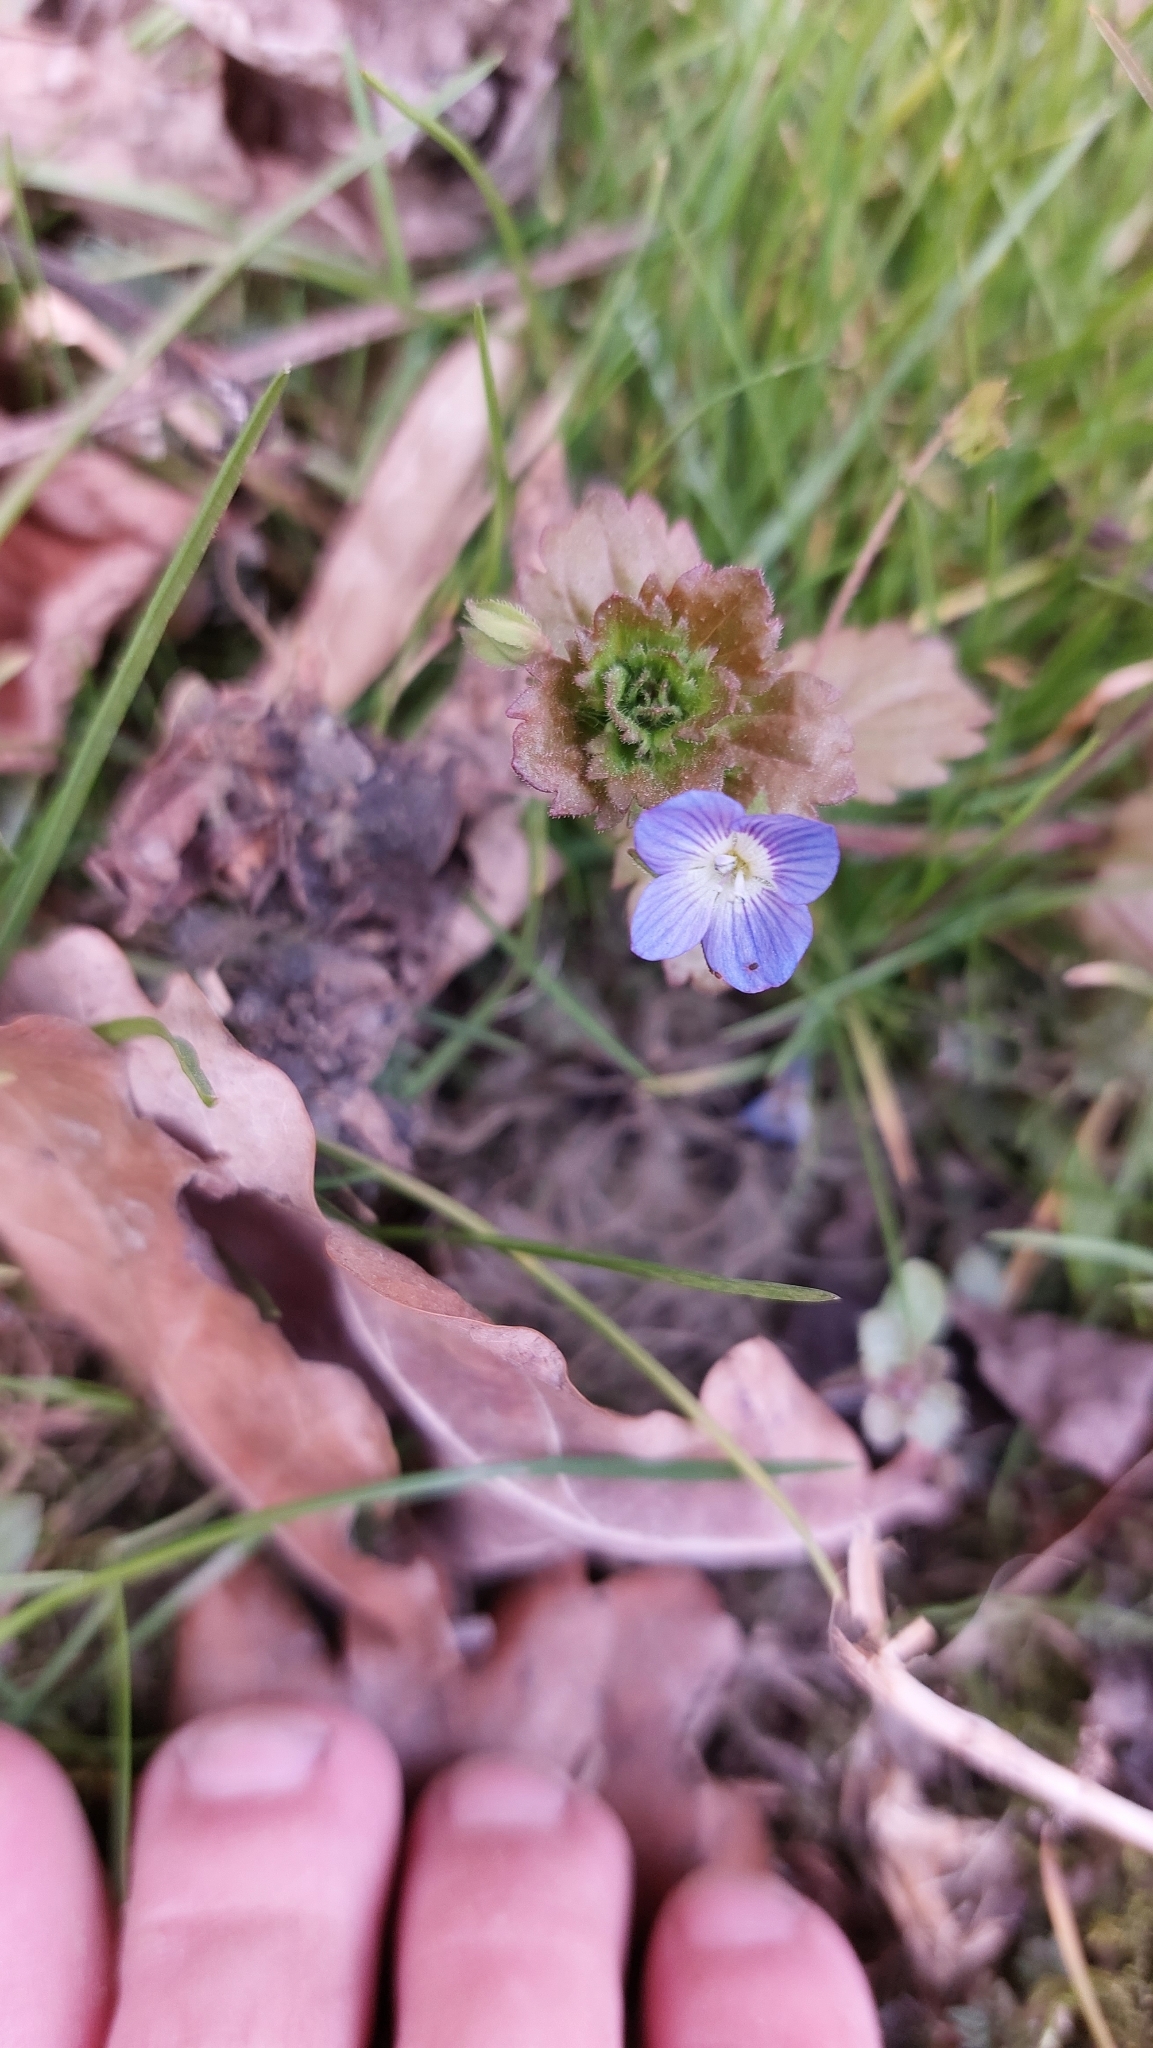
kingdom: Plantae
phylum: Tracheophyta
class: Magnoliopsida
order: Lamiales
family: Plantaginaceae
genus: Veronica
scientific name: Veronica persica
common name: Common field-speedwell
